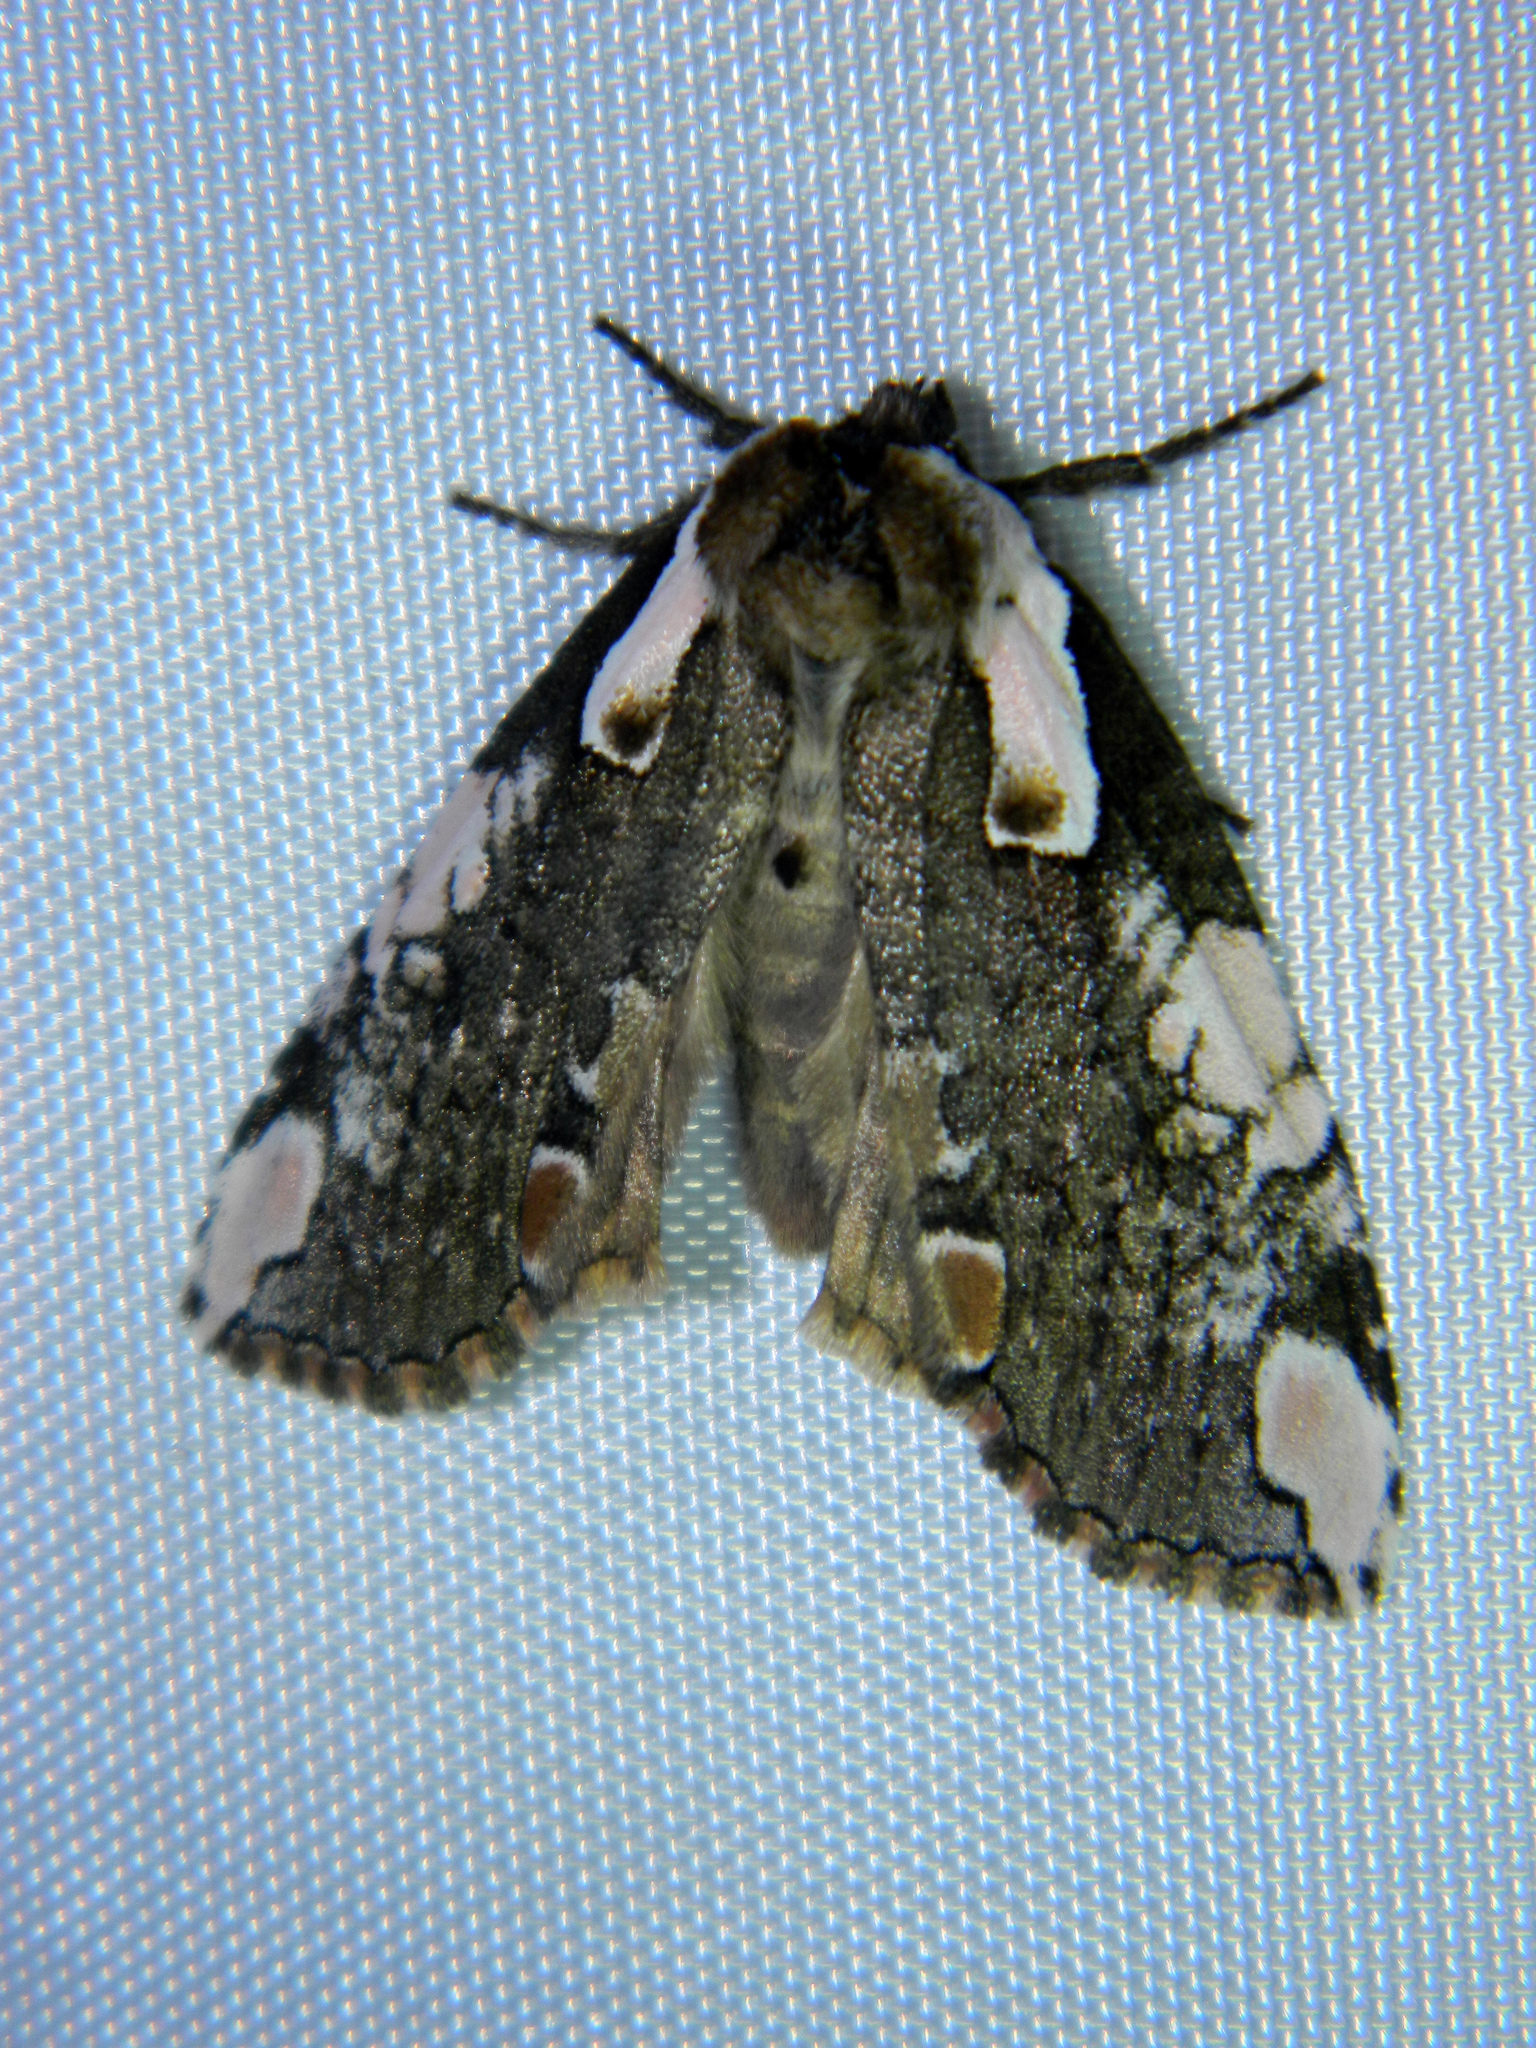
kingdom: Animalia
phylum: Arthropoda
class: Insecta
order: Lepidoptera
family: Drepanidae
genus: Euthyatira
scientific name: Euthyatira pudens
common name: Dogwood thyatirid moth
